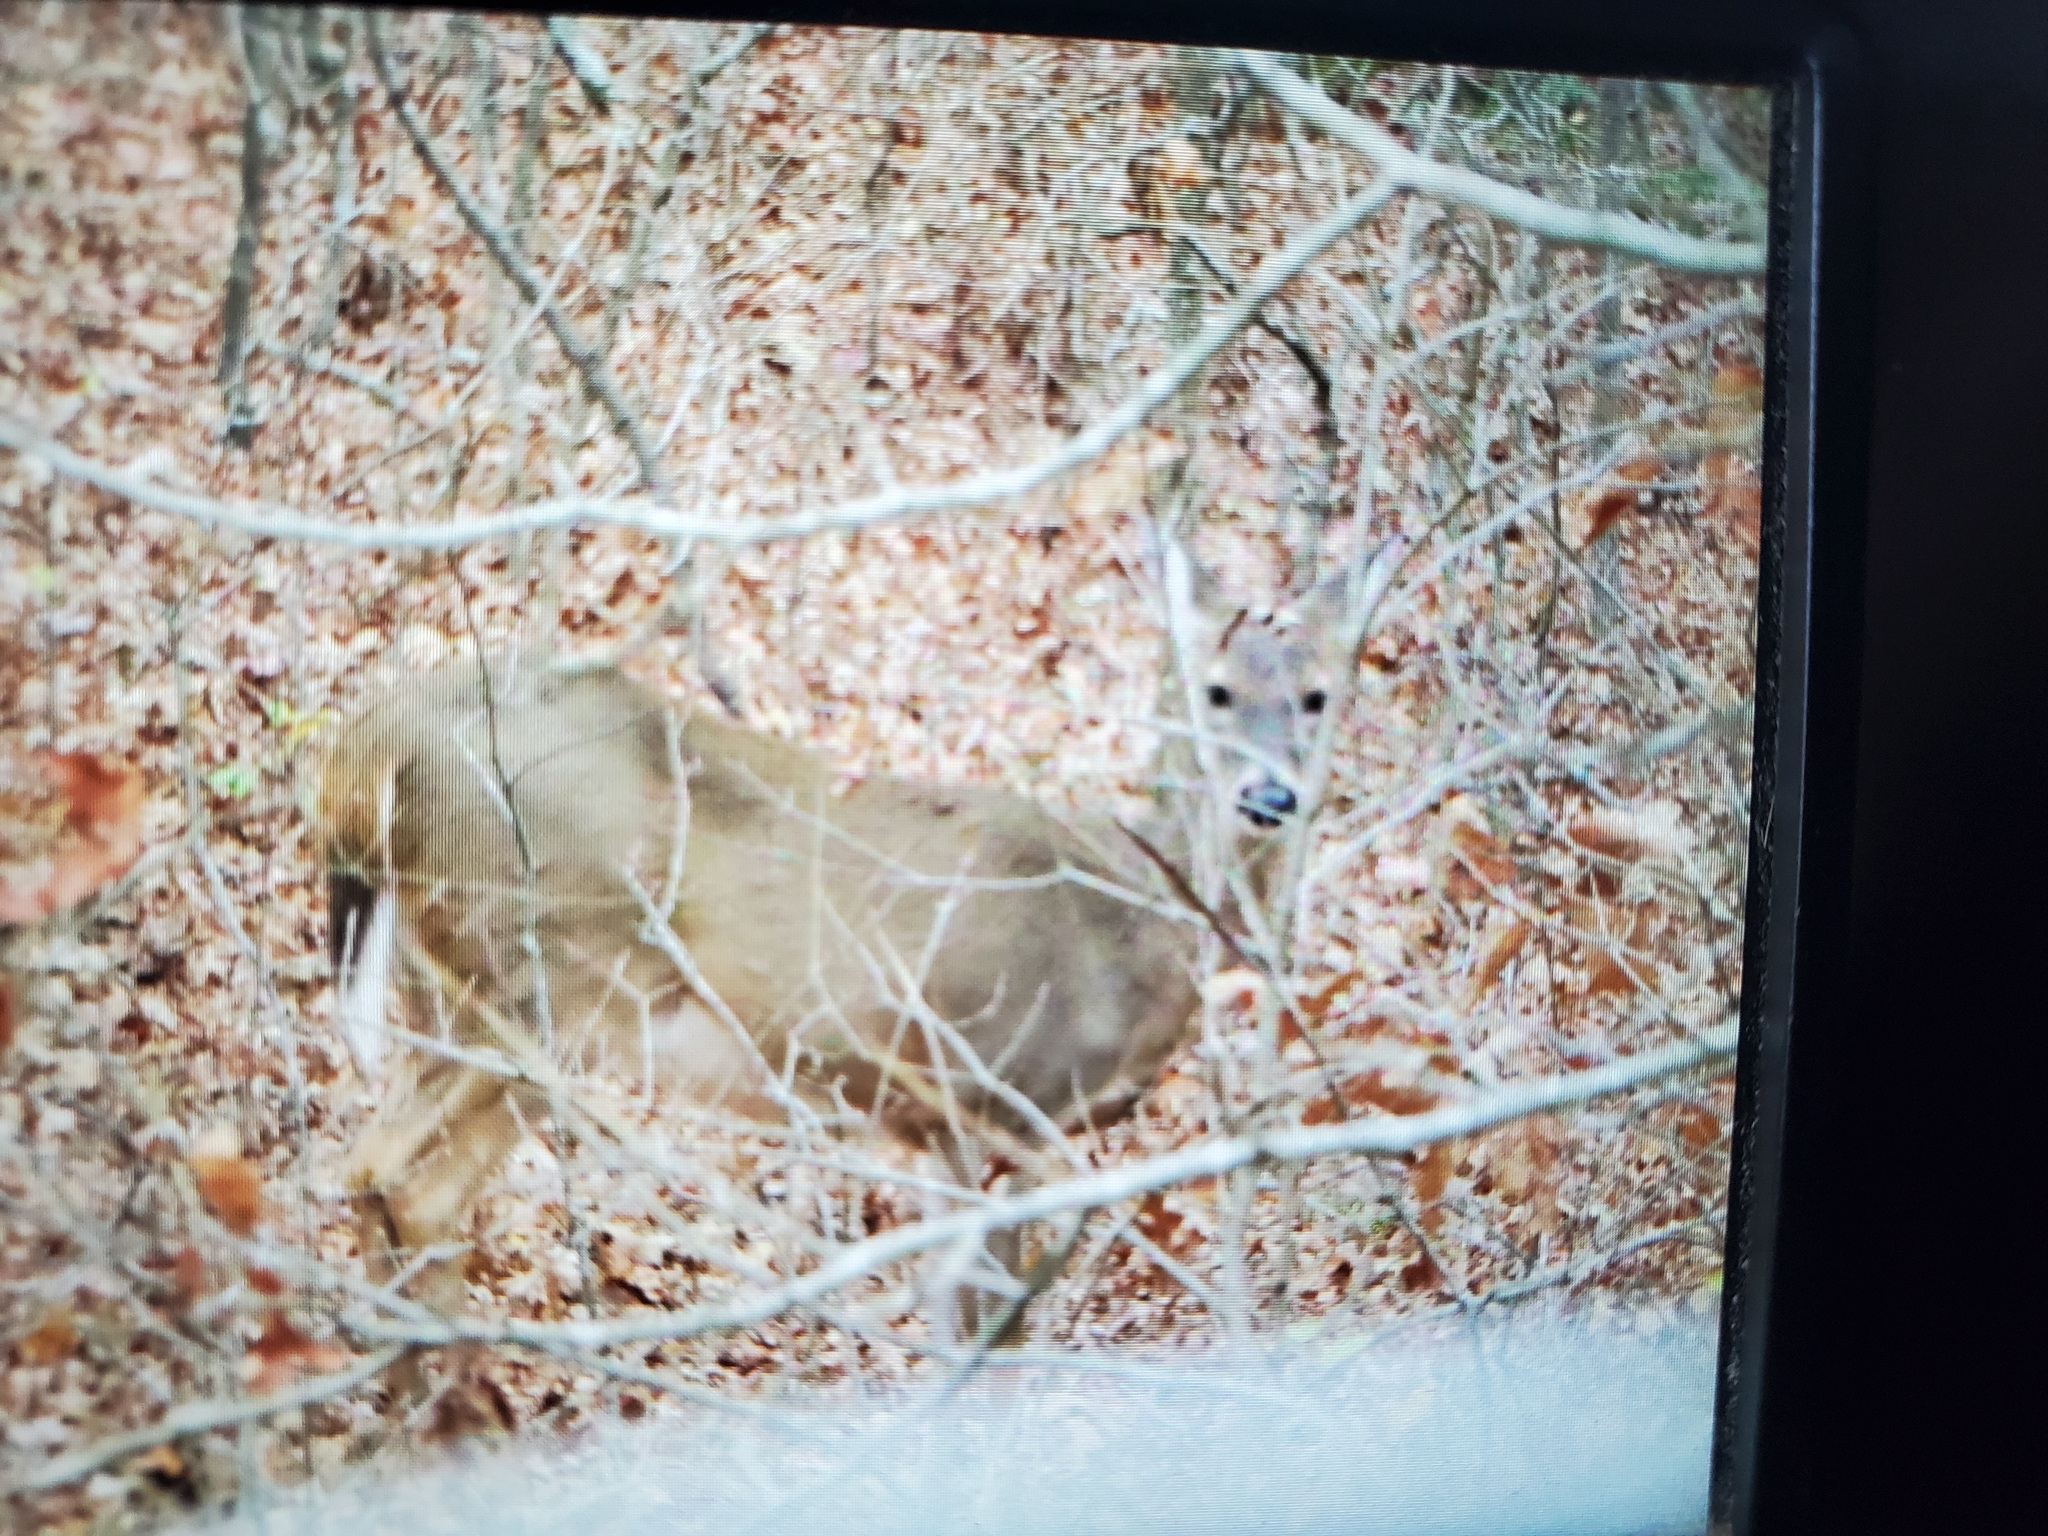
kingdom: Animalia
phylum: Chordata
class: Mammalia
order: Artiodactyla
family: Cervidae
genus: Odocoileus
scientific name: Odocoileus virginianus
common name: White-tailed deer
